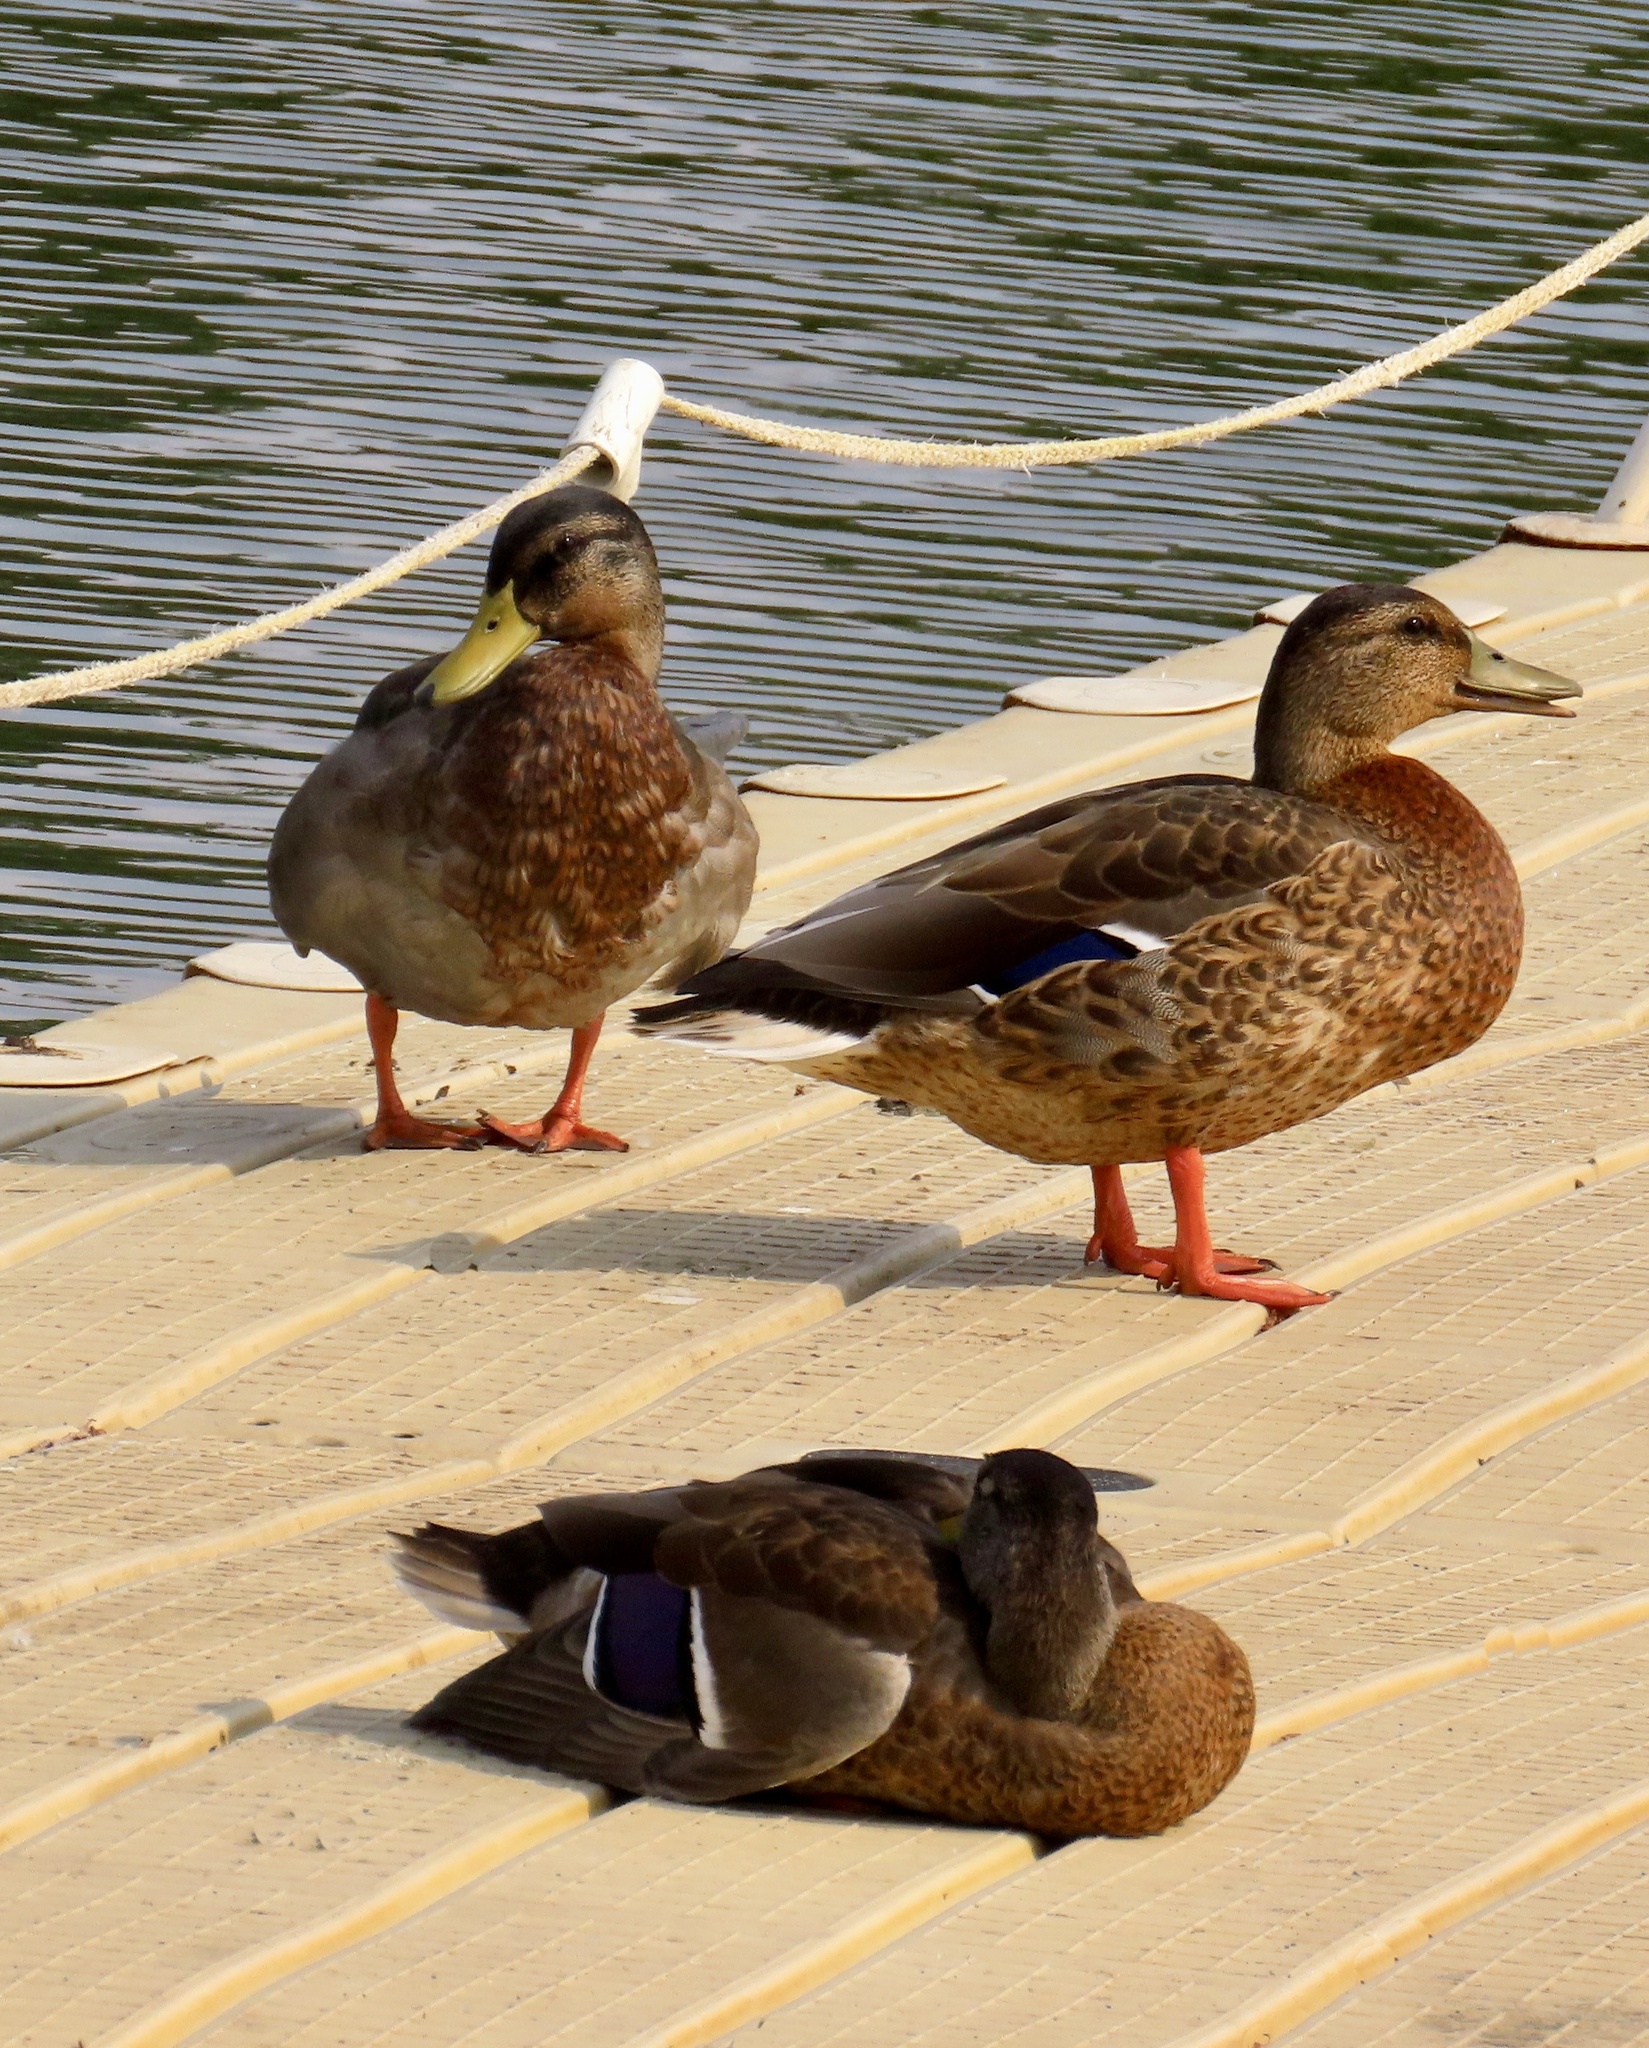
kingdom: Animalia
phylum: Chordata
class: Aves
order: Anseriformes
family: Anatidae
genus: Anas
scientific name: Anas platyrhynchos
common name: Mallard
